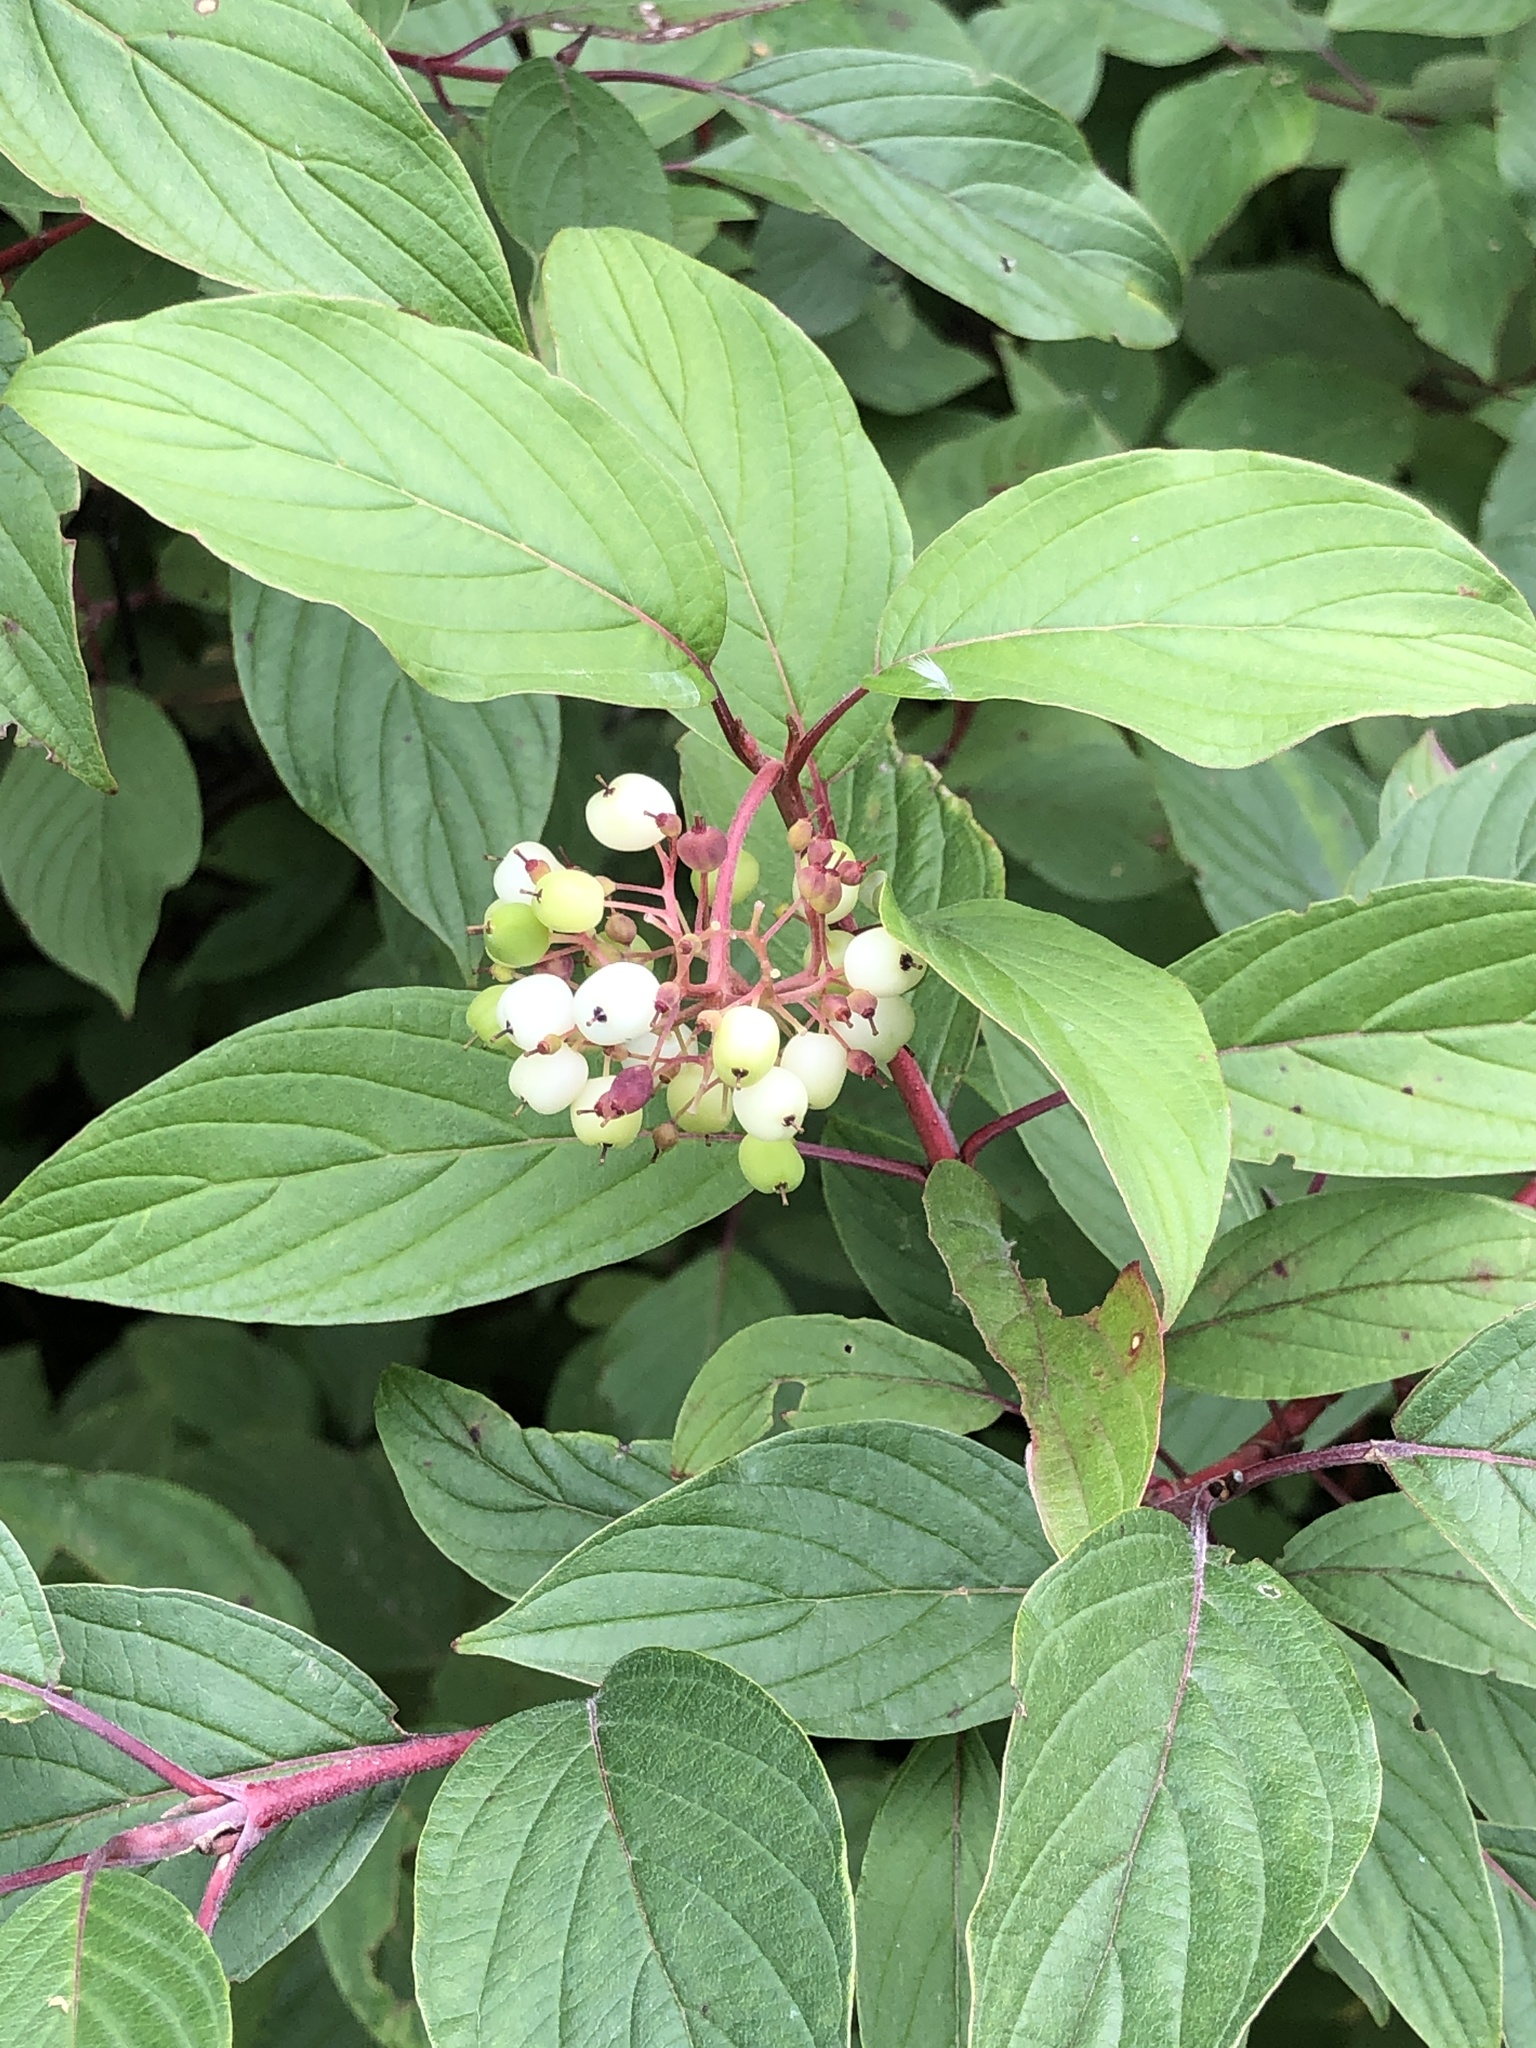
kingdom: Plantae
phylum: Tracheophyta
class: Magnoliopsida
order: Cornales
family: Cornaceae
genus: Cornus
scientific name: Cornus sericea
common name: Red-osier dogwood
